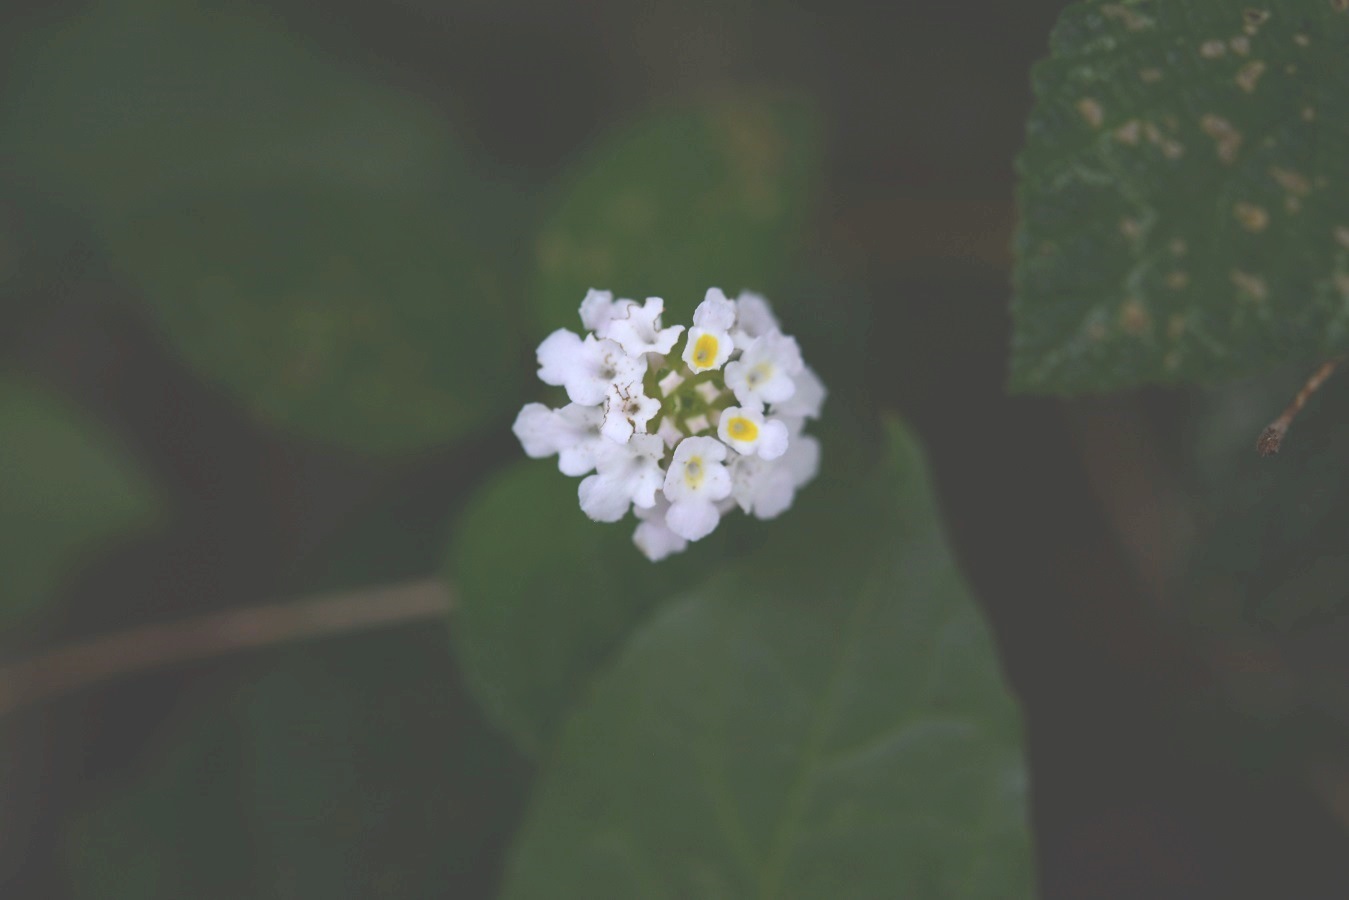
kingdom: Plantae
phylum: Tracheophyta
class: Magnoliopsida
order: Lamiales
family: Verbenaceae
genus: Lantana
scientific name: Lantana velutina
